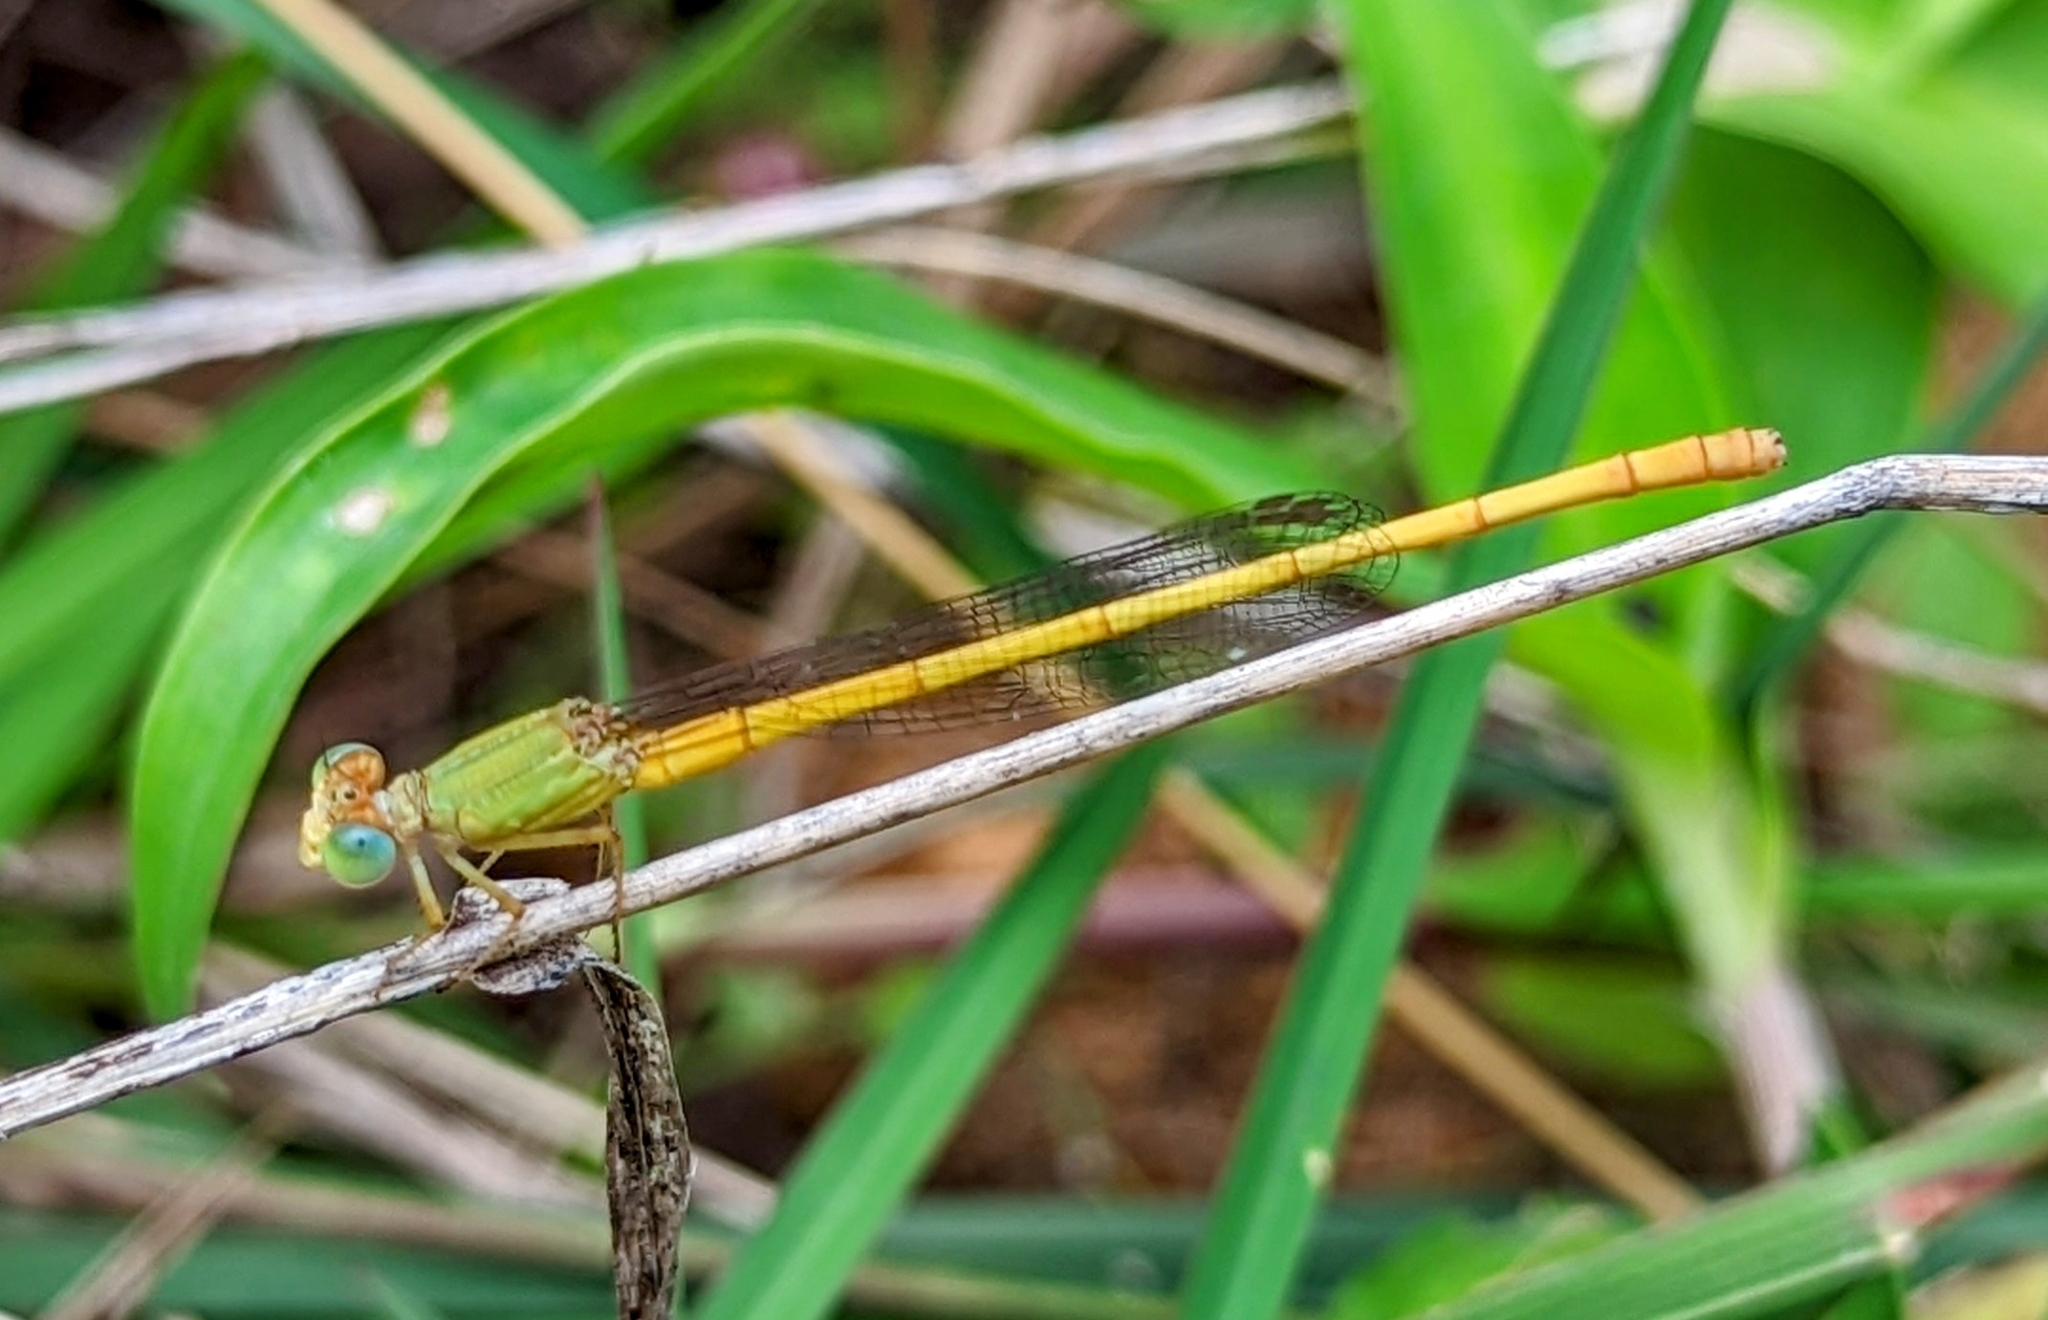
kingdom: Animalia
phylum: Arthropoda
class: Insecta
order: Odonata
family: Coenagrionidae
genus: Ceriagrion
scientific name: Ceriagrion coromandelianum
